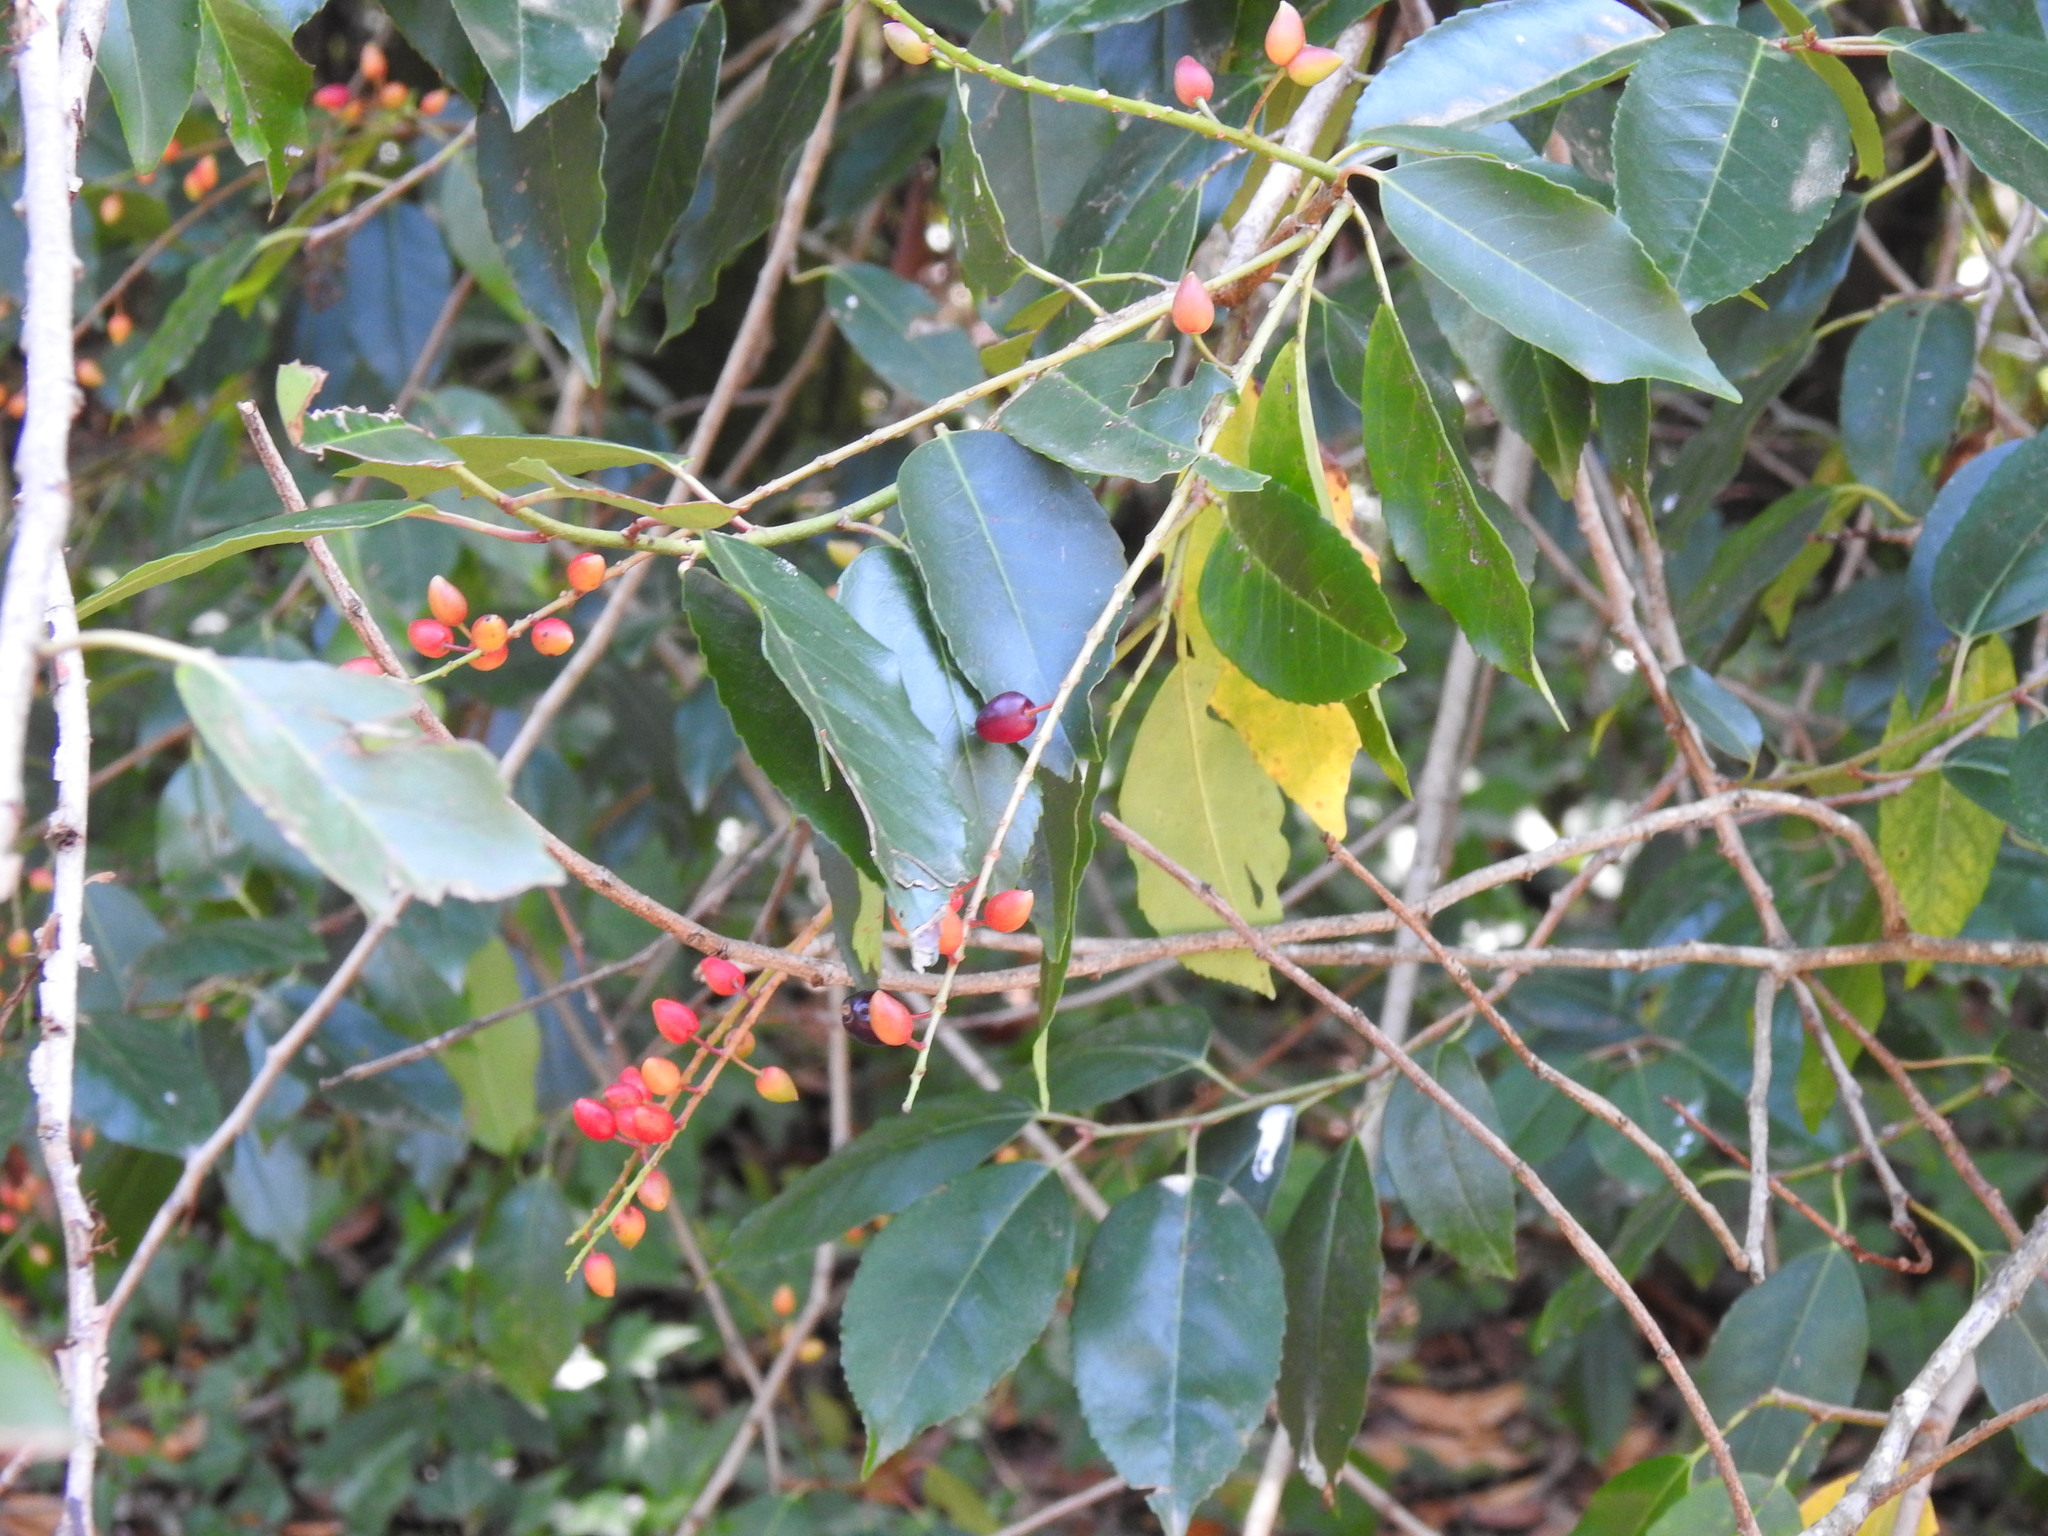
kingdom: Plantae
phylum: Tracheophyta
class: Magnoliopsida
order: Rosales
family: Rosaceae
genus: Prunus
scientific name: Prunus lusitanica
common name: Portugal laurel
